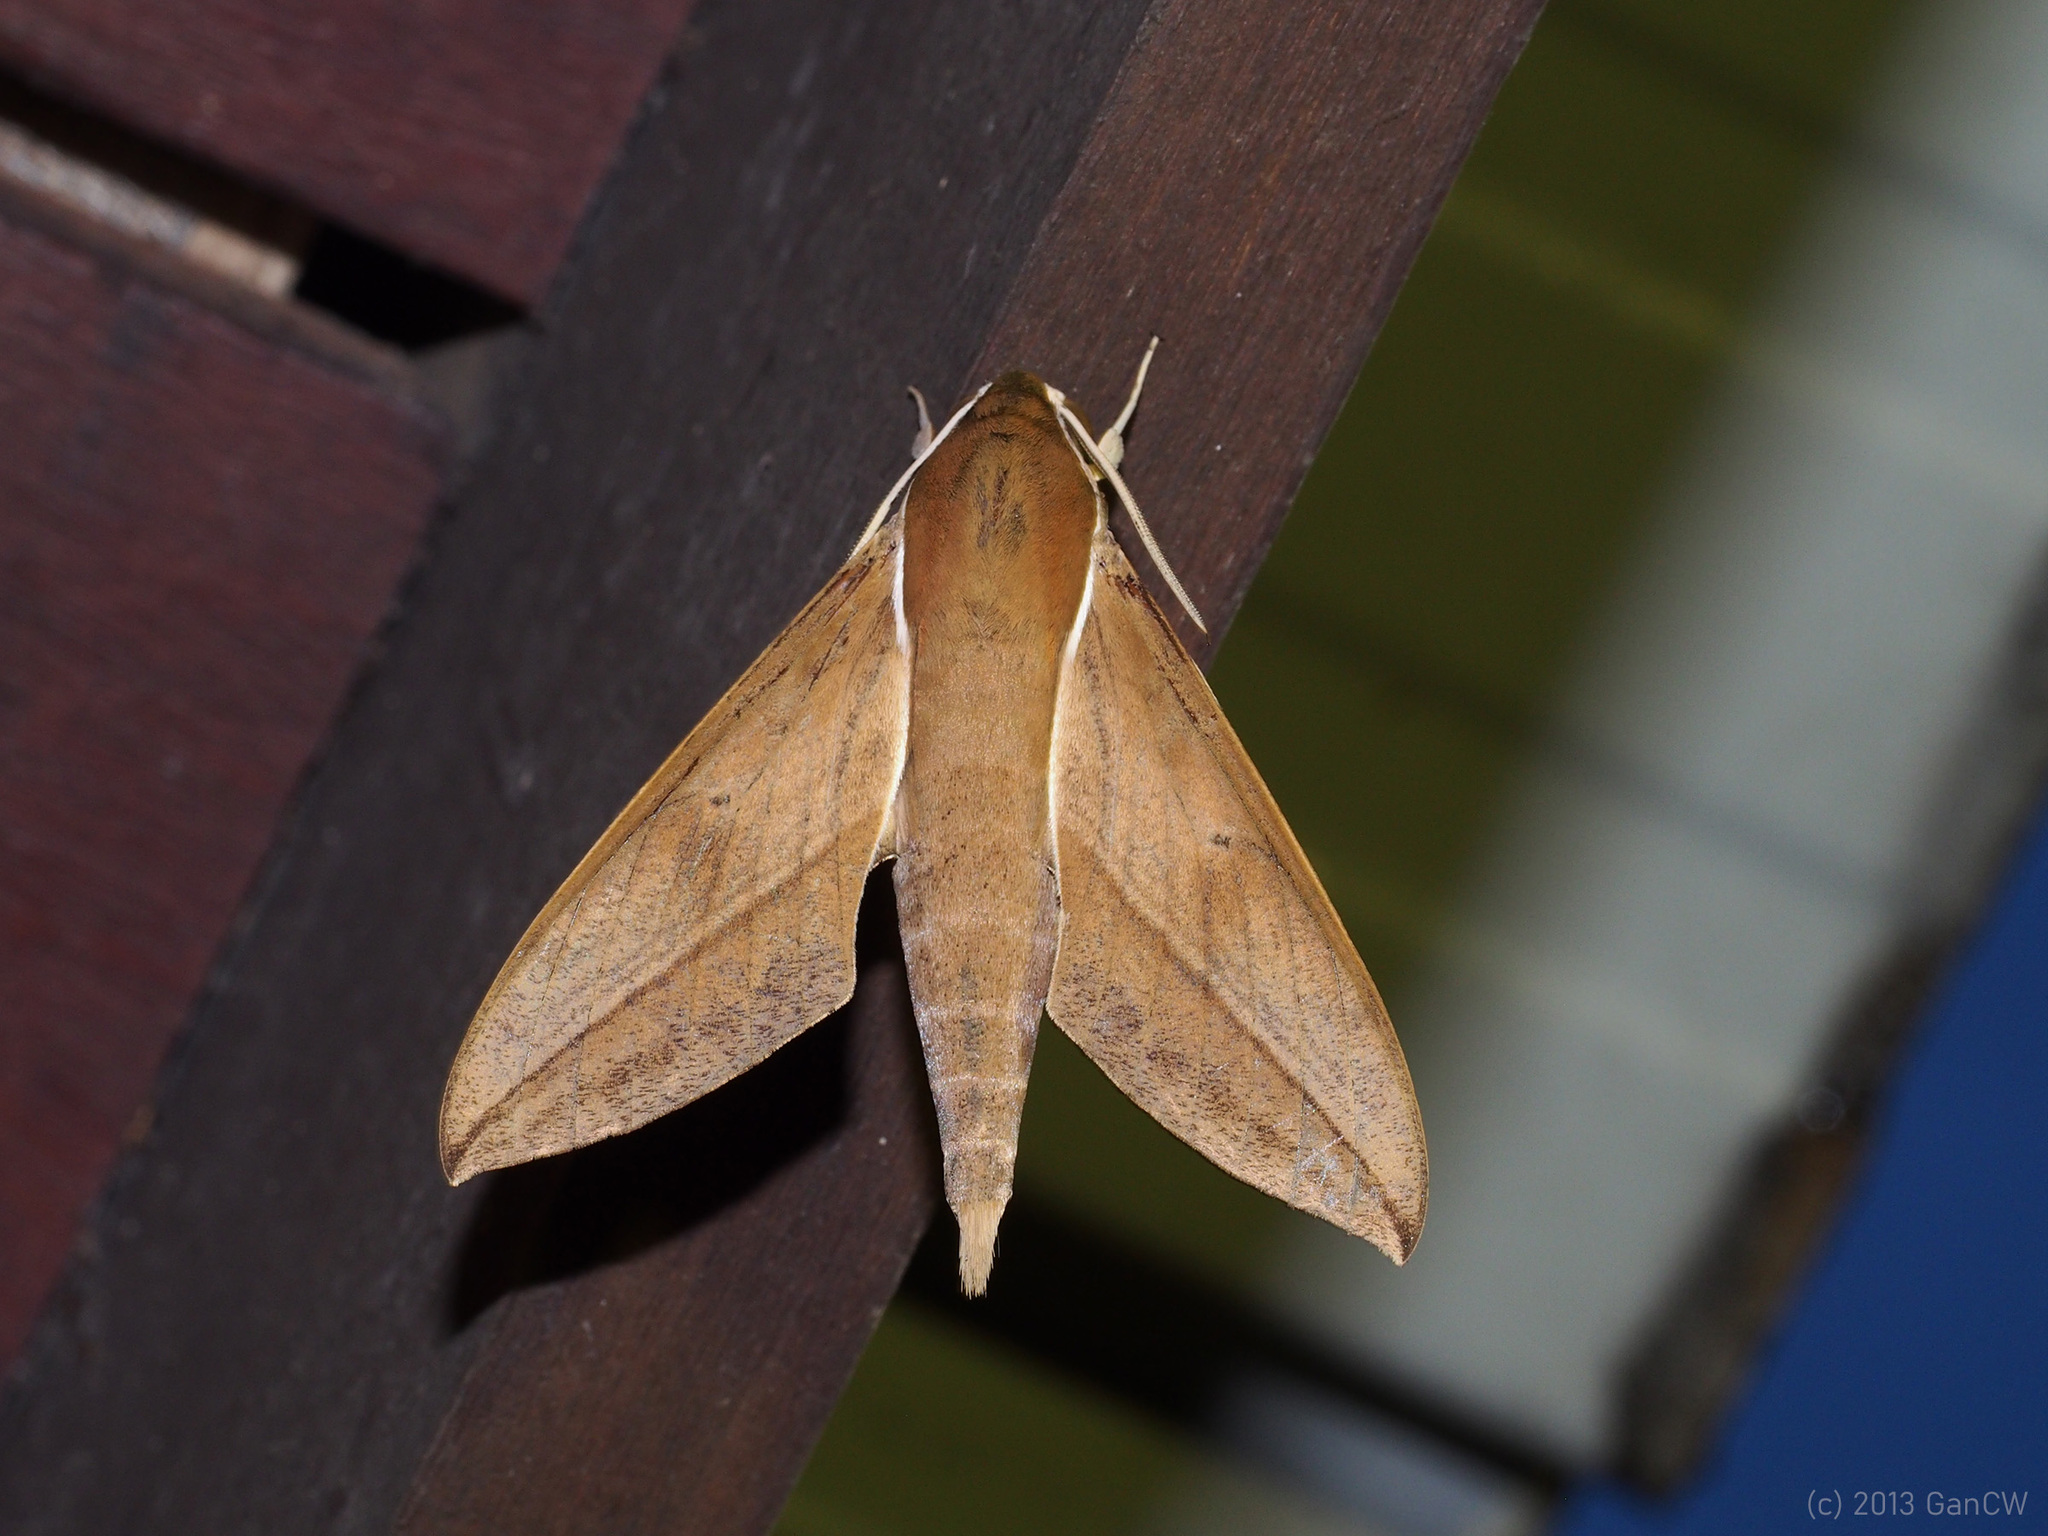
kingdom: Animalia
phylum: Arthropoda
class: Insecta
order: Lepidoptera
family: Sphingidae
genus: Theretra
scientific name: Theretra clotho
